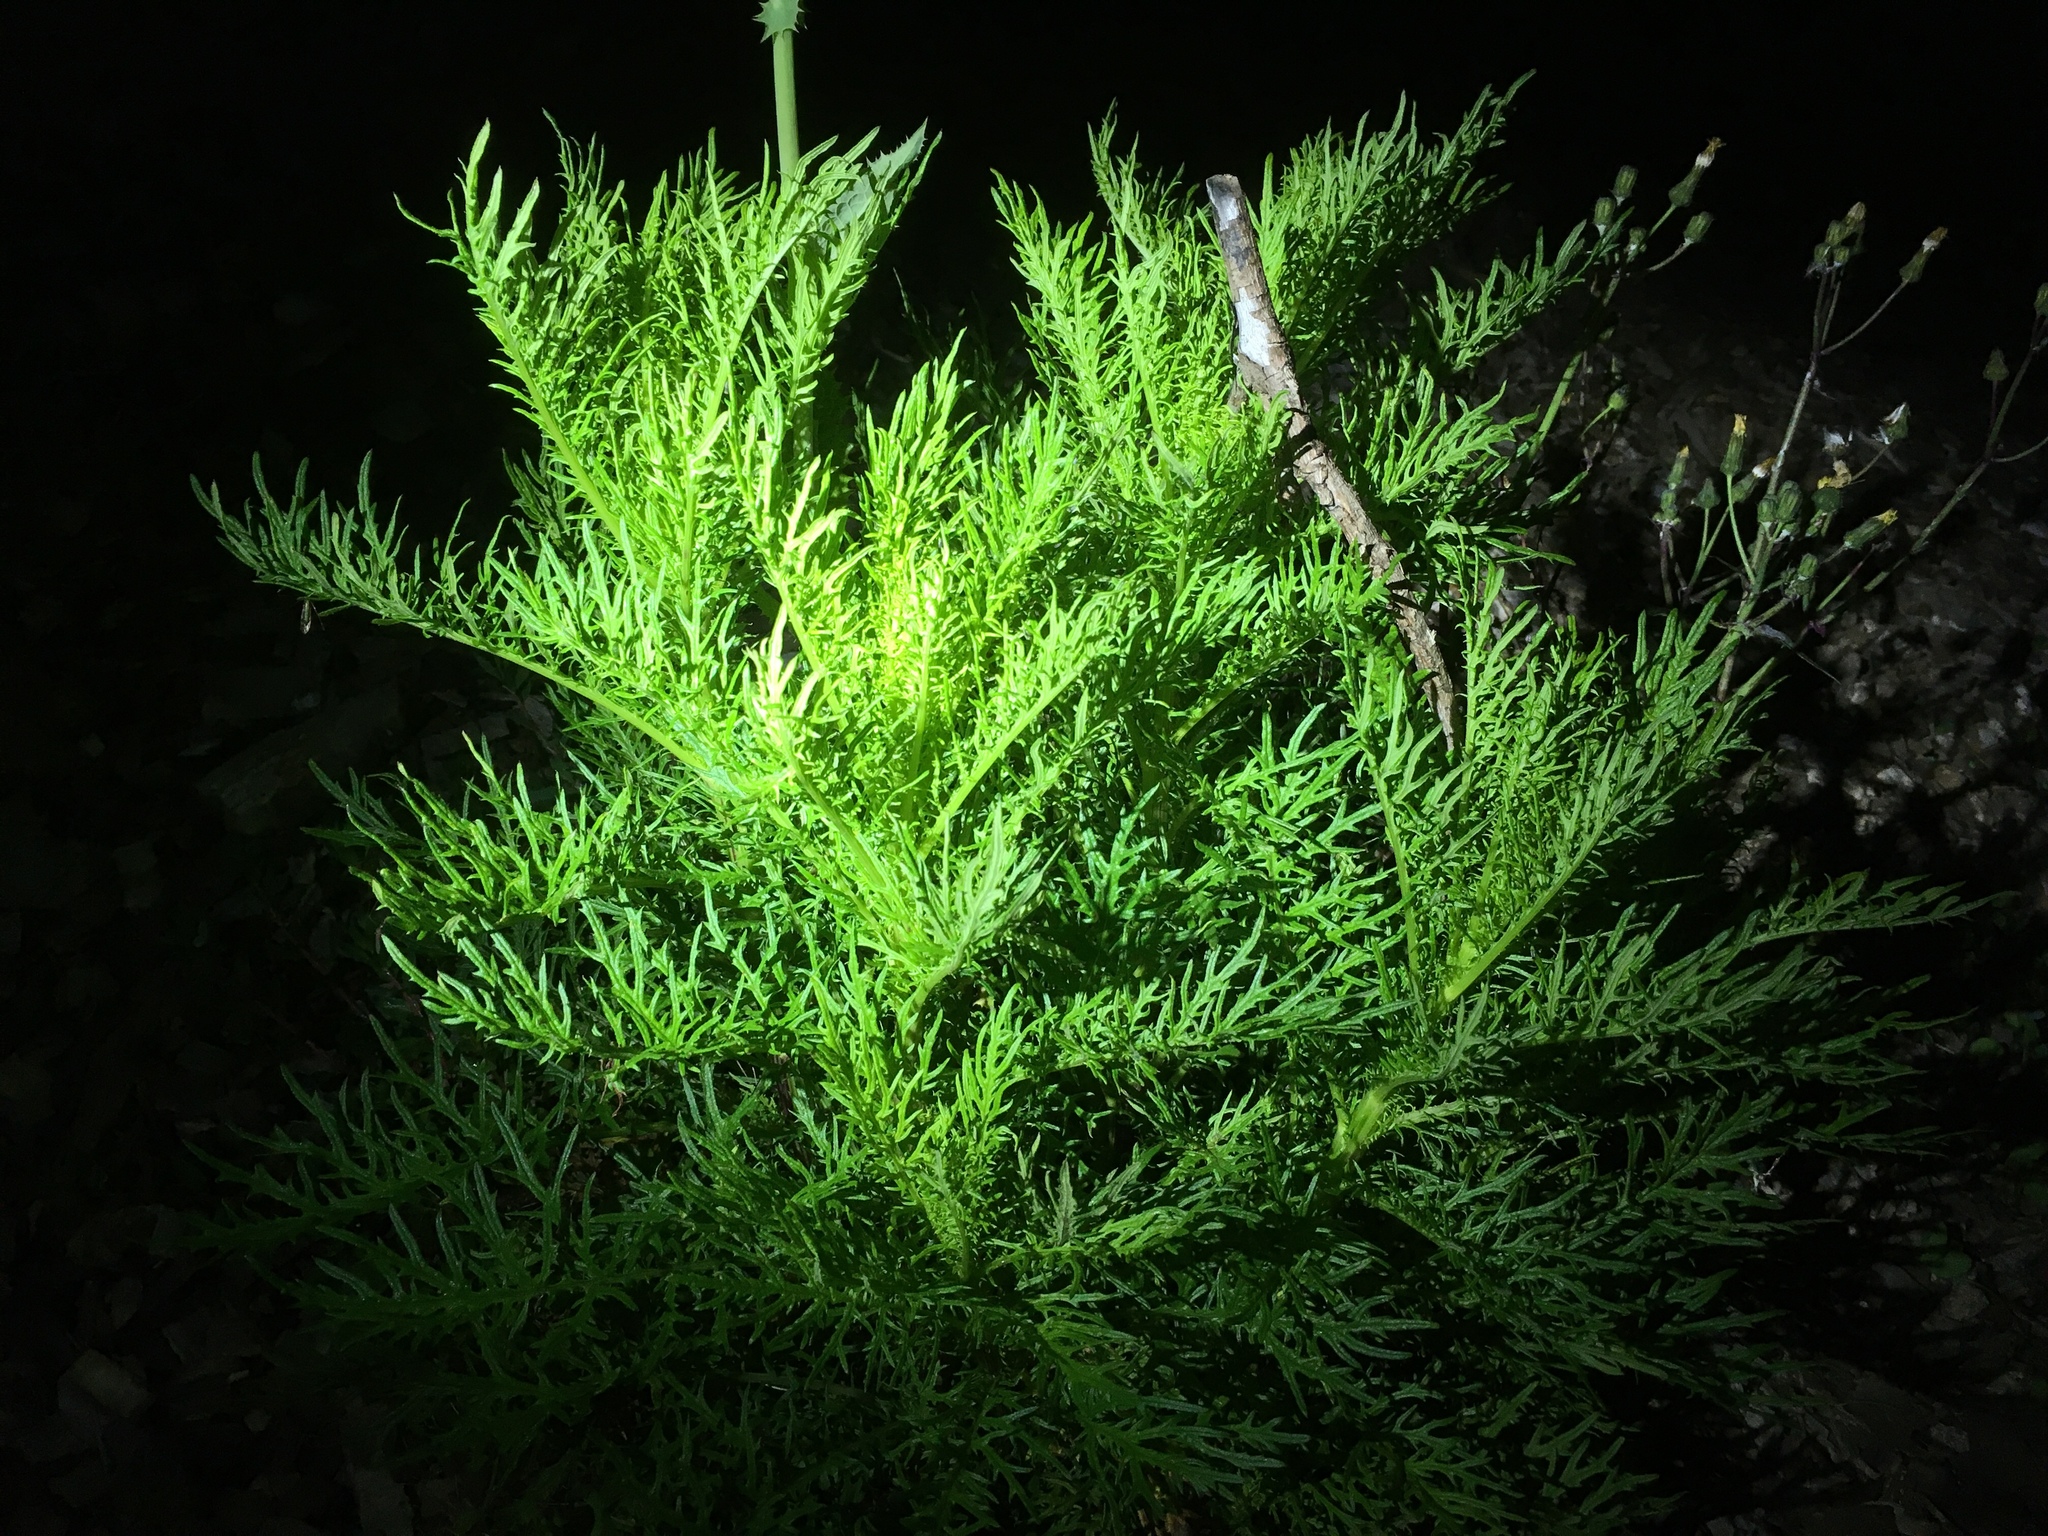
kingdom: Plantae
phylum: Tracheophyta
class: Magnoliopsida
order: Asterales
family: Asteraceae
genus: Senecio
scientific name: Senecio bipinnatisectus
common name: Australian fireweed
